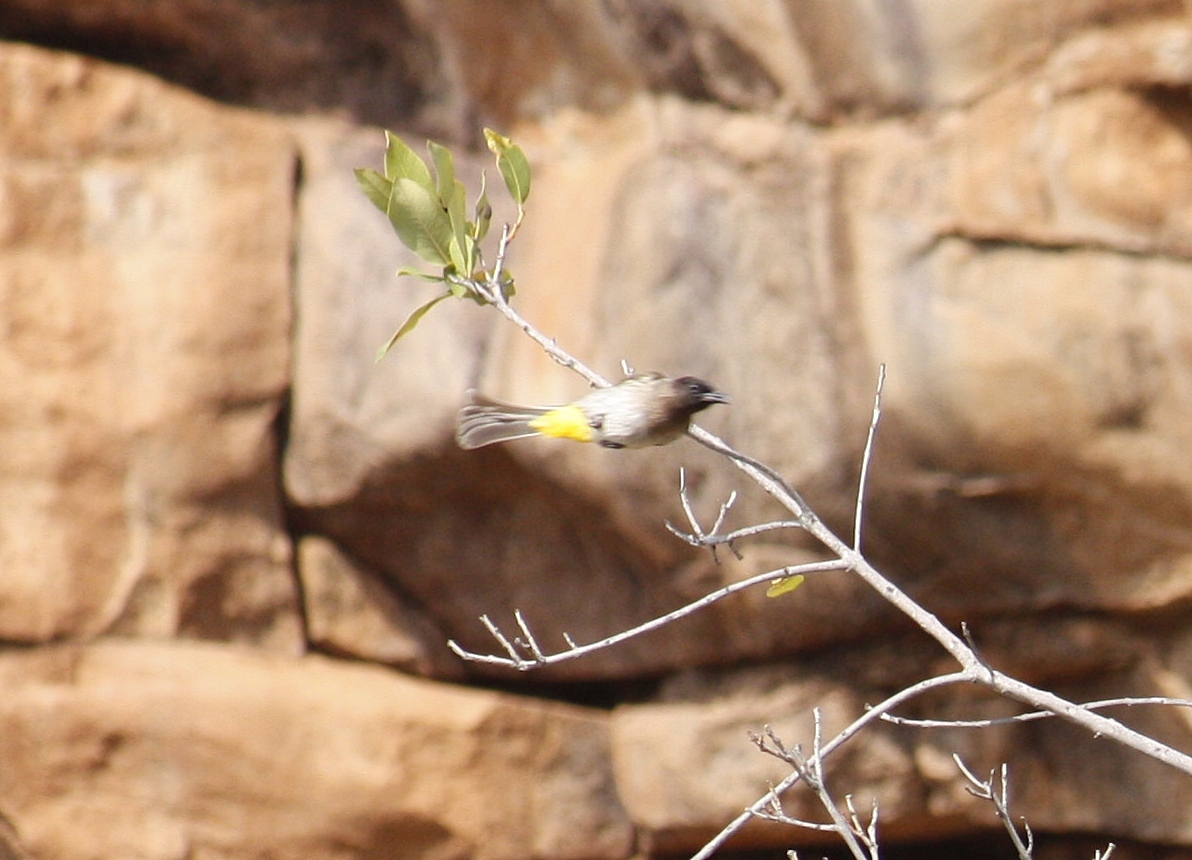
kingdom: Animalia
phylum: Chordata
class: Aves
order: Passeriformes
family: Pycnonotidae
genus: Pycnonotus
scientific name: Pycnonotus barbatus
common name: Common bulbul
